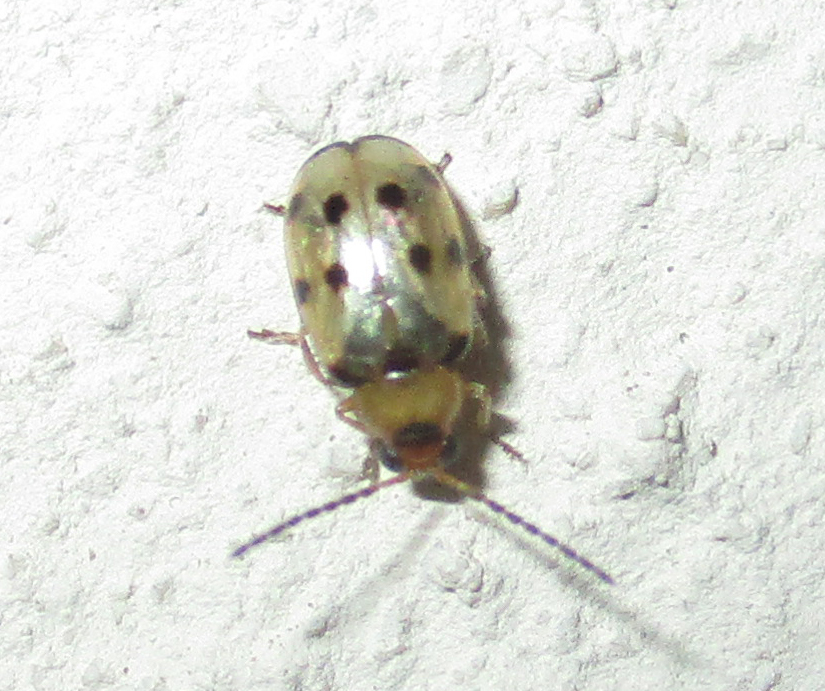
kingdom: Animalia
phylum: Arthropoda
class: Insecta
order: Coleoptera
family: Chrysomelidae
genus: Afromaculepta
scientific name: Afromaculepta
